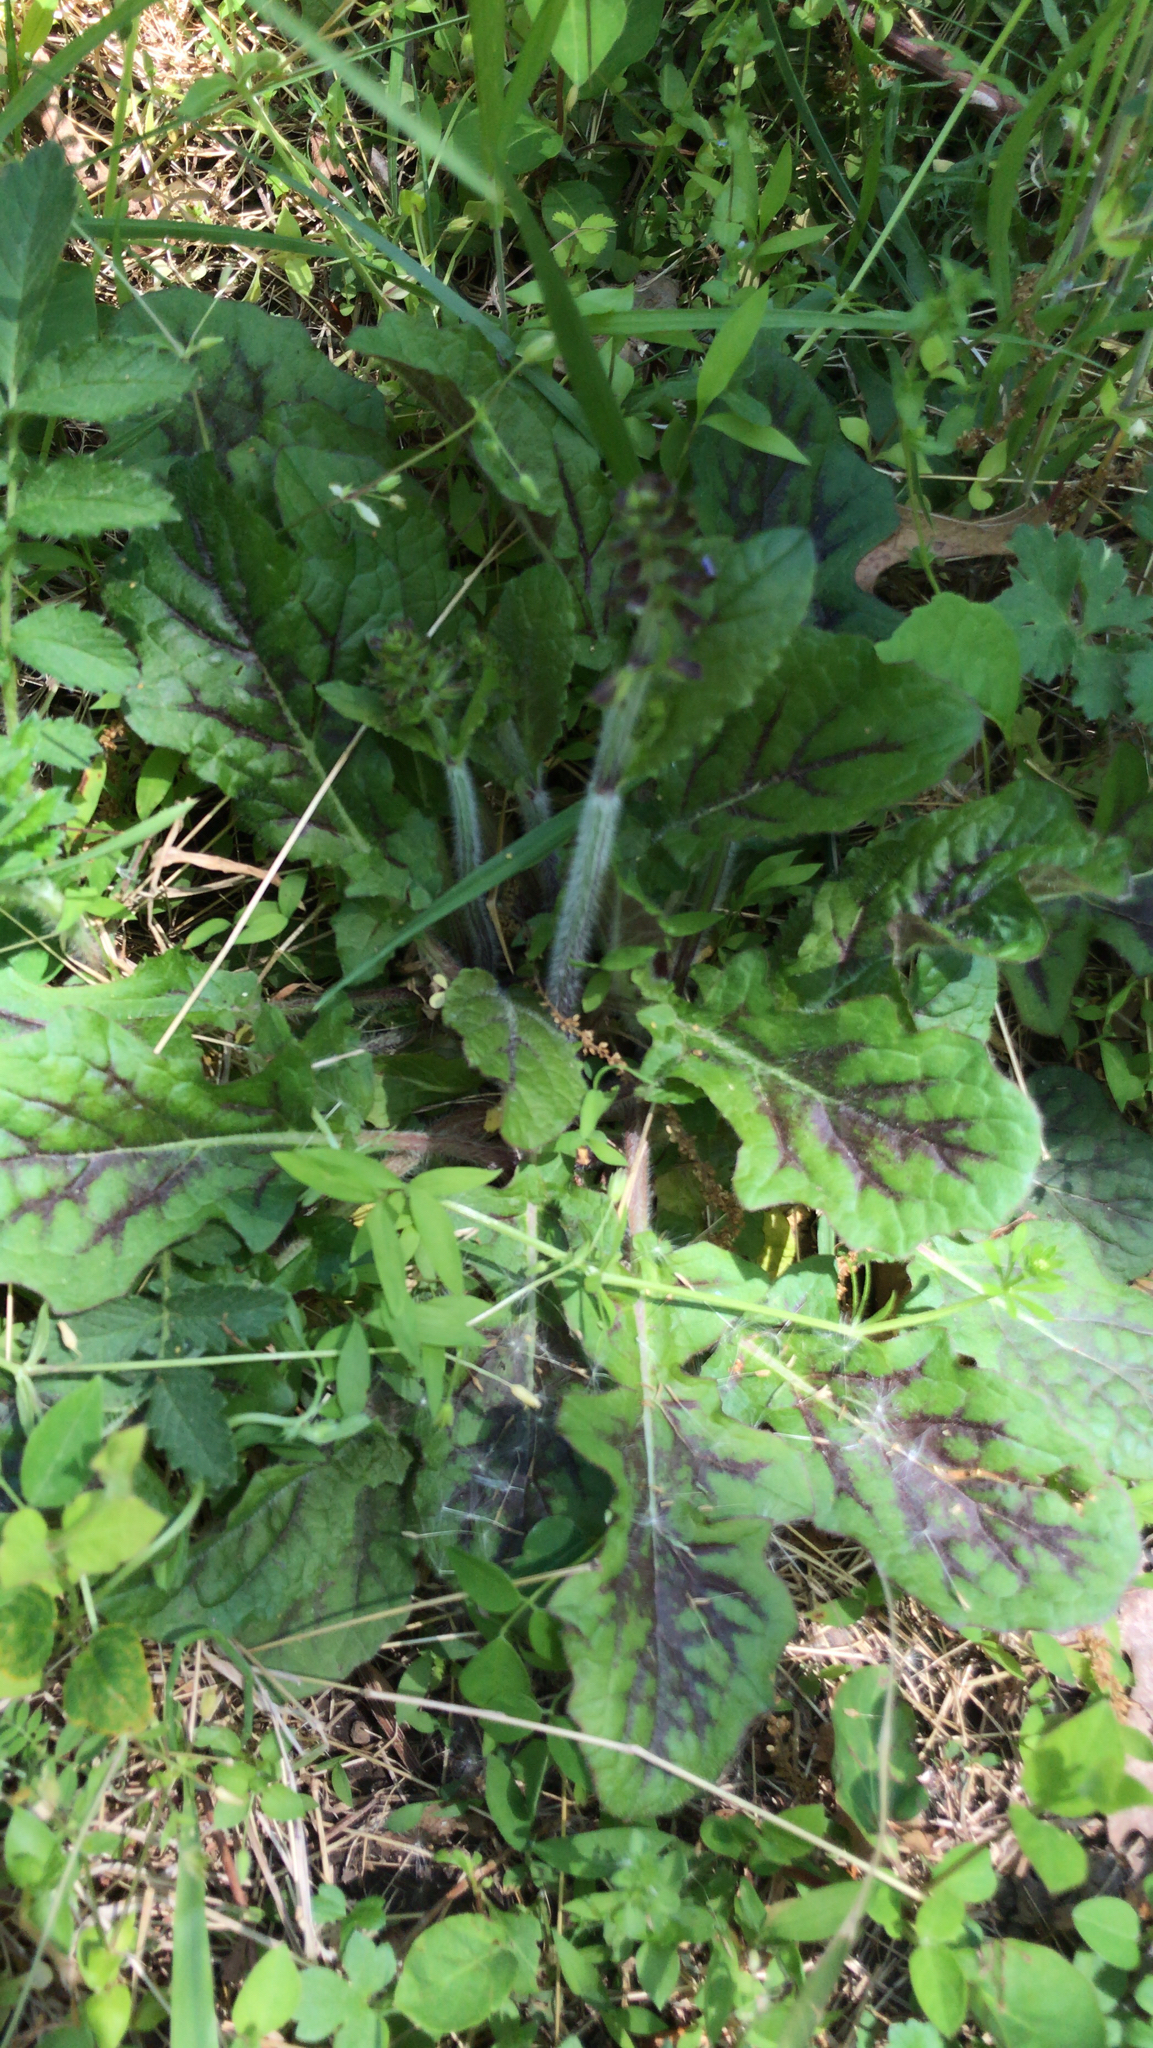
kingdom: Plantae
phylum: Tracheophyta
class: Magnoliopsida
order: Lamiales
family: Lamiaceae
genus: Salvia
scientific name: Salvia lyrata
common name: Cancerweed
